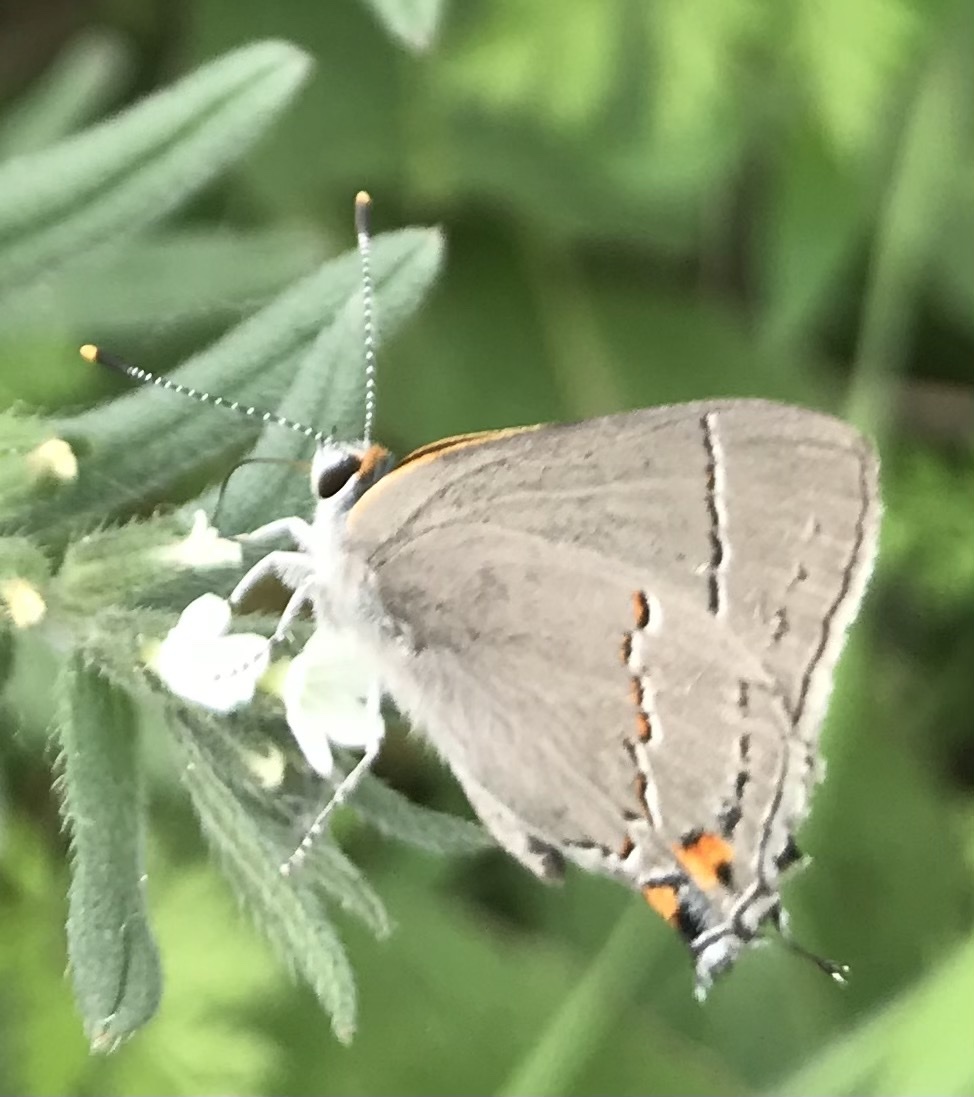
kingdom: Animalia
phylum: Arthropoda
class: Insecta
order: Lepidoptera
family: Lycaenidae
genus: Strymon
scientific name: Strymon melinus
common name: Gray hairstreak
